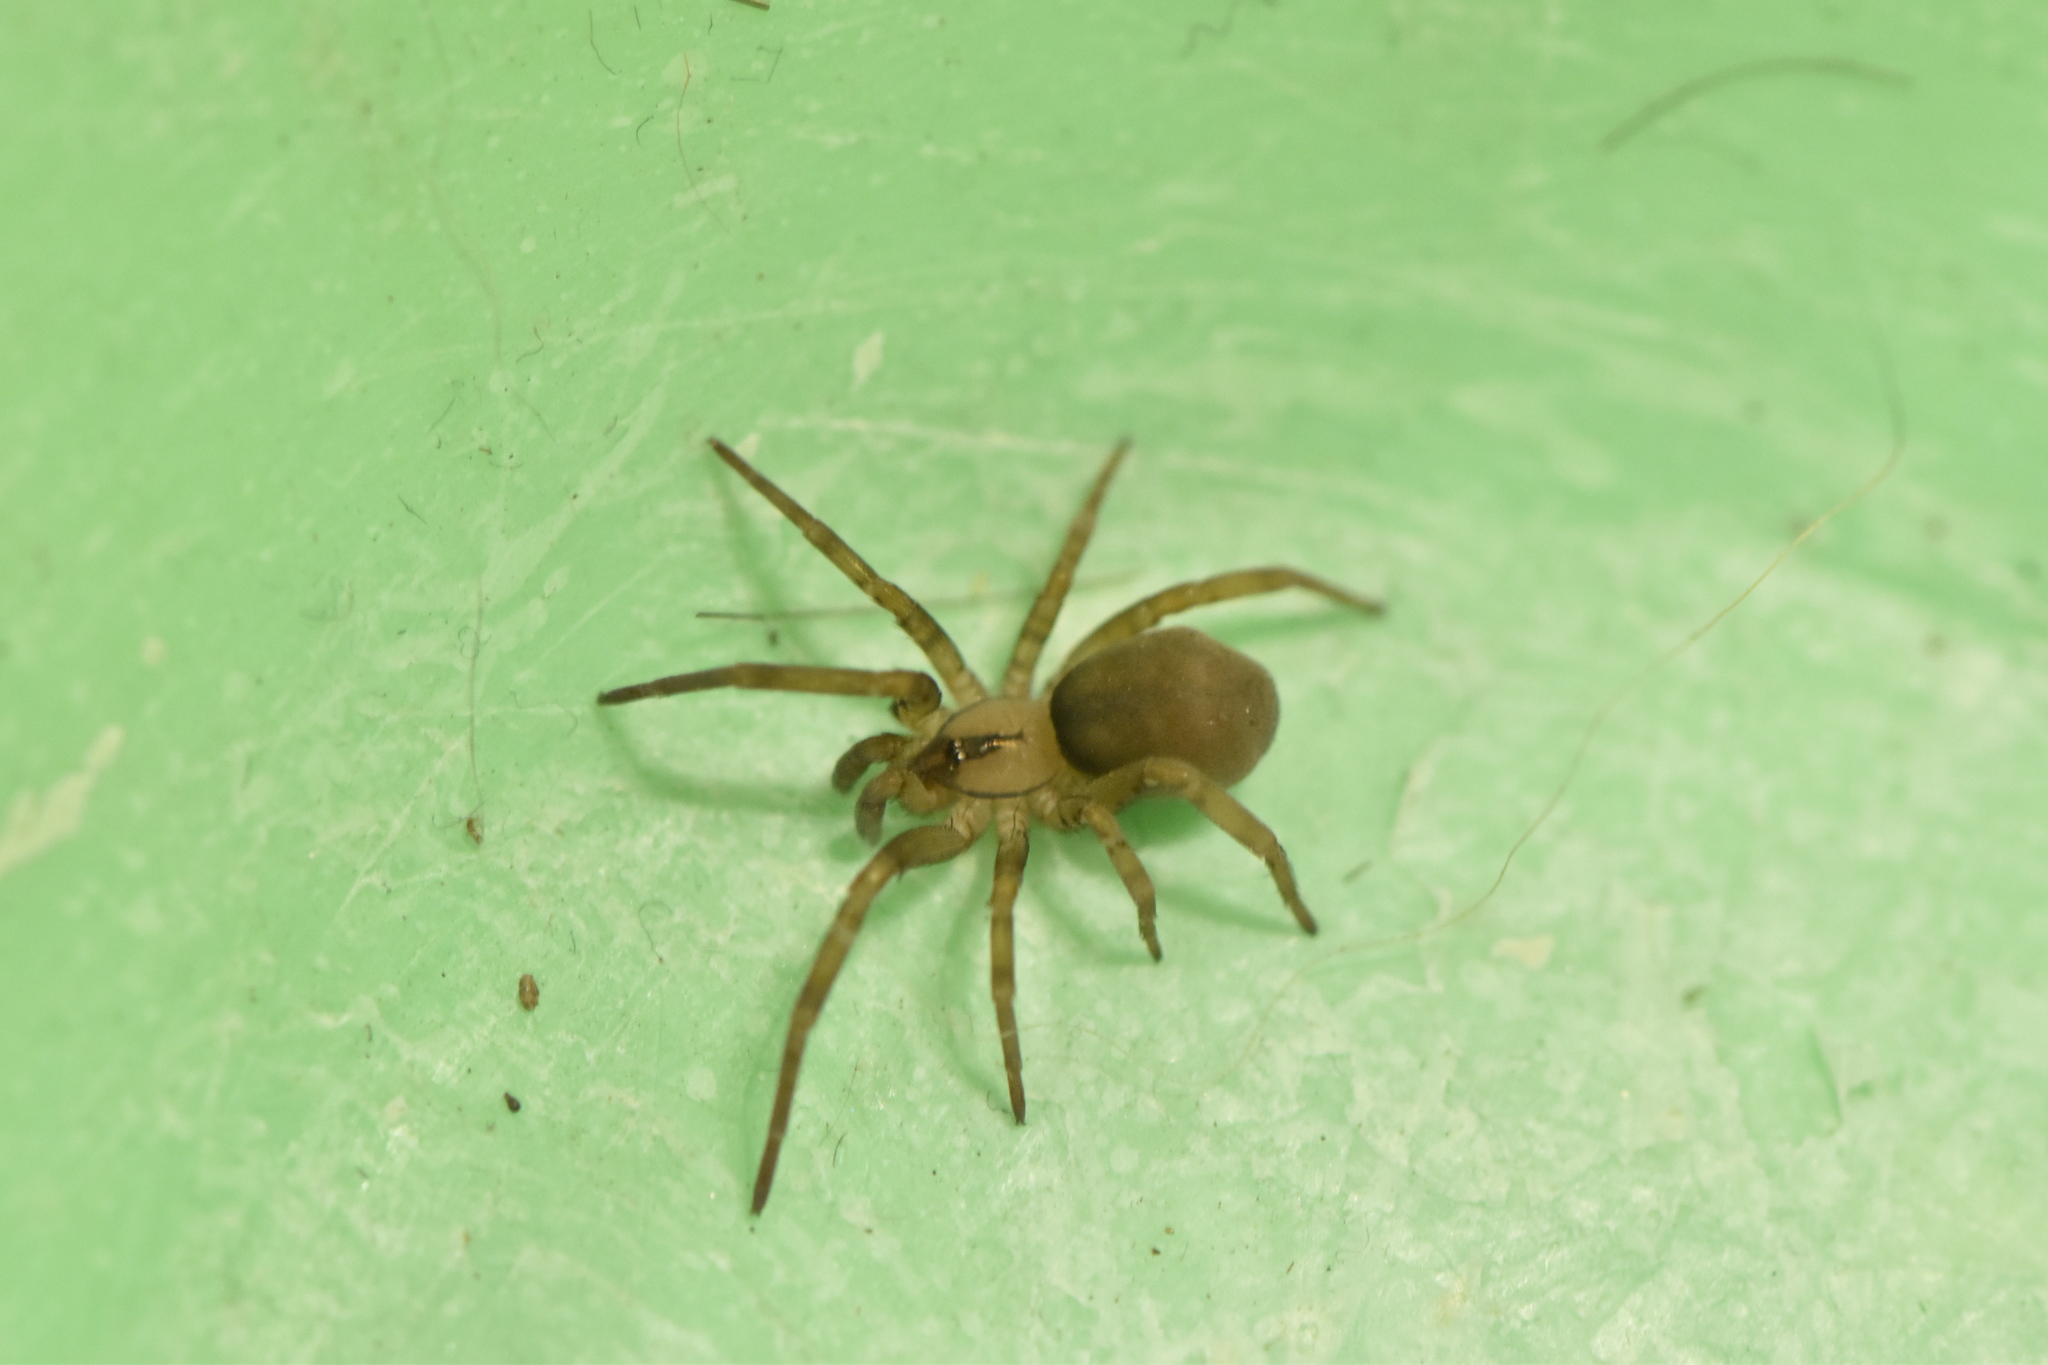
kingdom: Animalia
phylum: Arthropoda
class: Arachnida
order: Araneae
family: Filistatidae
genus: Filistata
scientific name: Filistata insidiatrix
